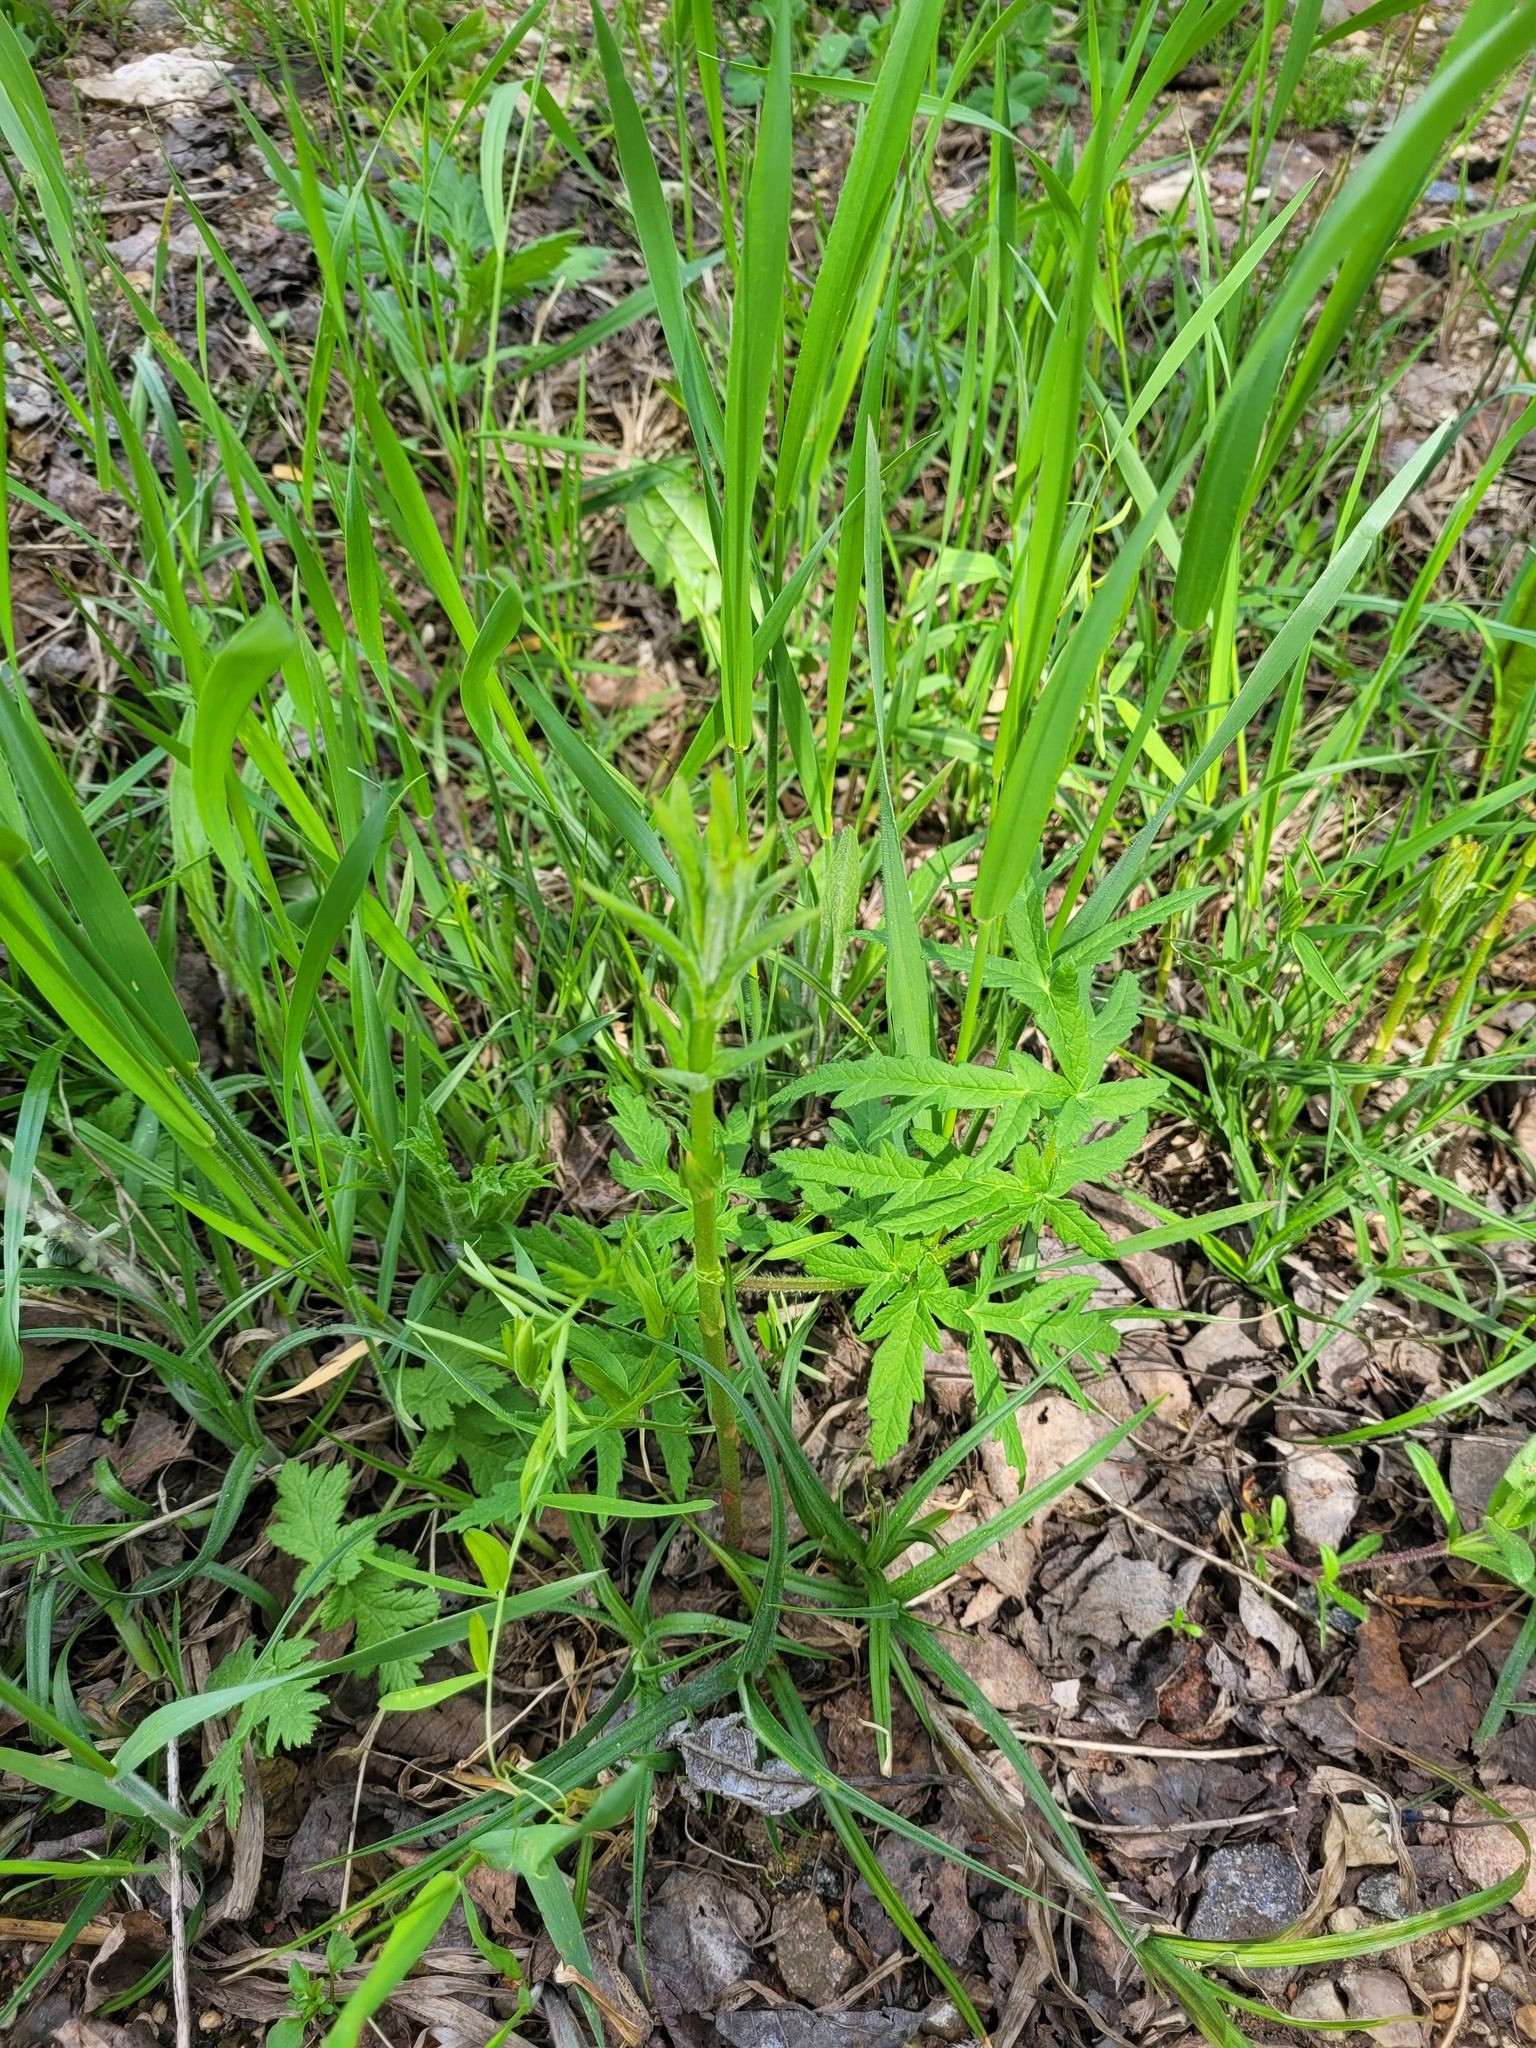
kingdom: Plantae
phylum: Tracheophyta
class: Magnoliopsida
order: Ericales
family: Primulaceae
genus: Lysimachia
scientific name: Lysimachia vulgaris
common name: Yellow loosestrife
